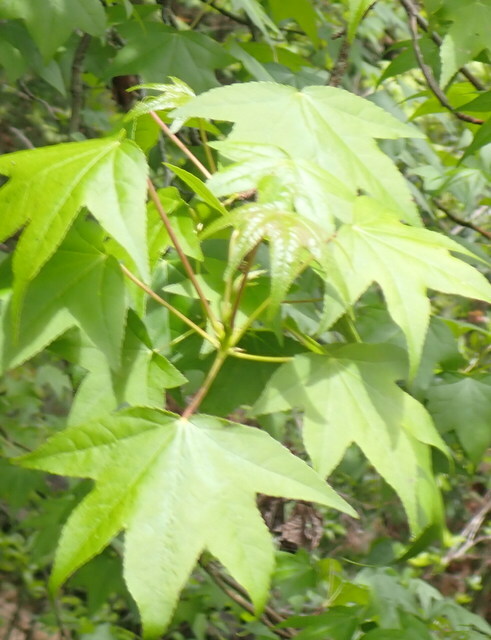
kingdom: Plantae
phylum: Tracheophyta
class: Magnoliopsida
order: Saxifragales
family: Altingiaceae
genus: Liquidambar
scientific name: Liquidambar styraciflua
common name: Sweet gum
